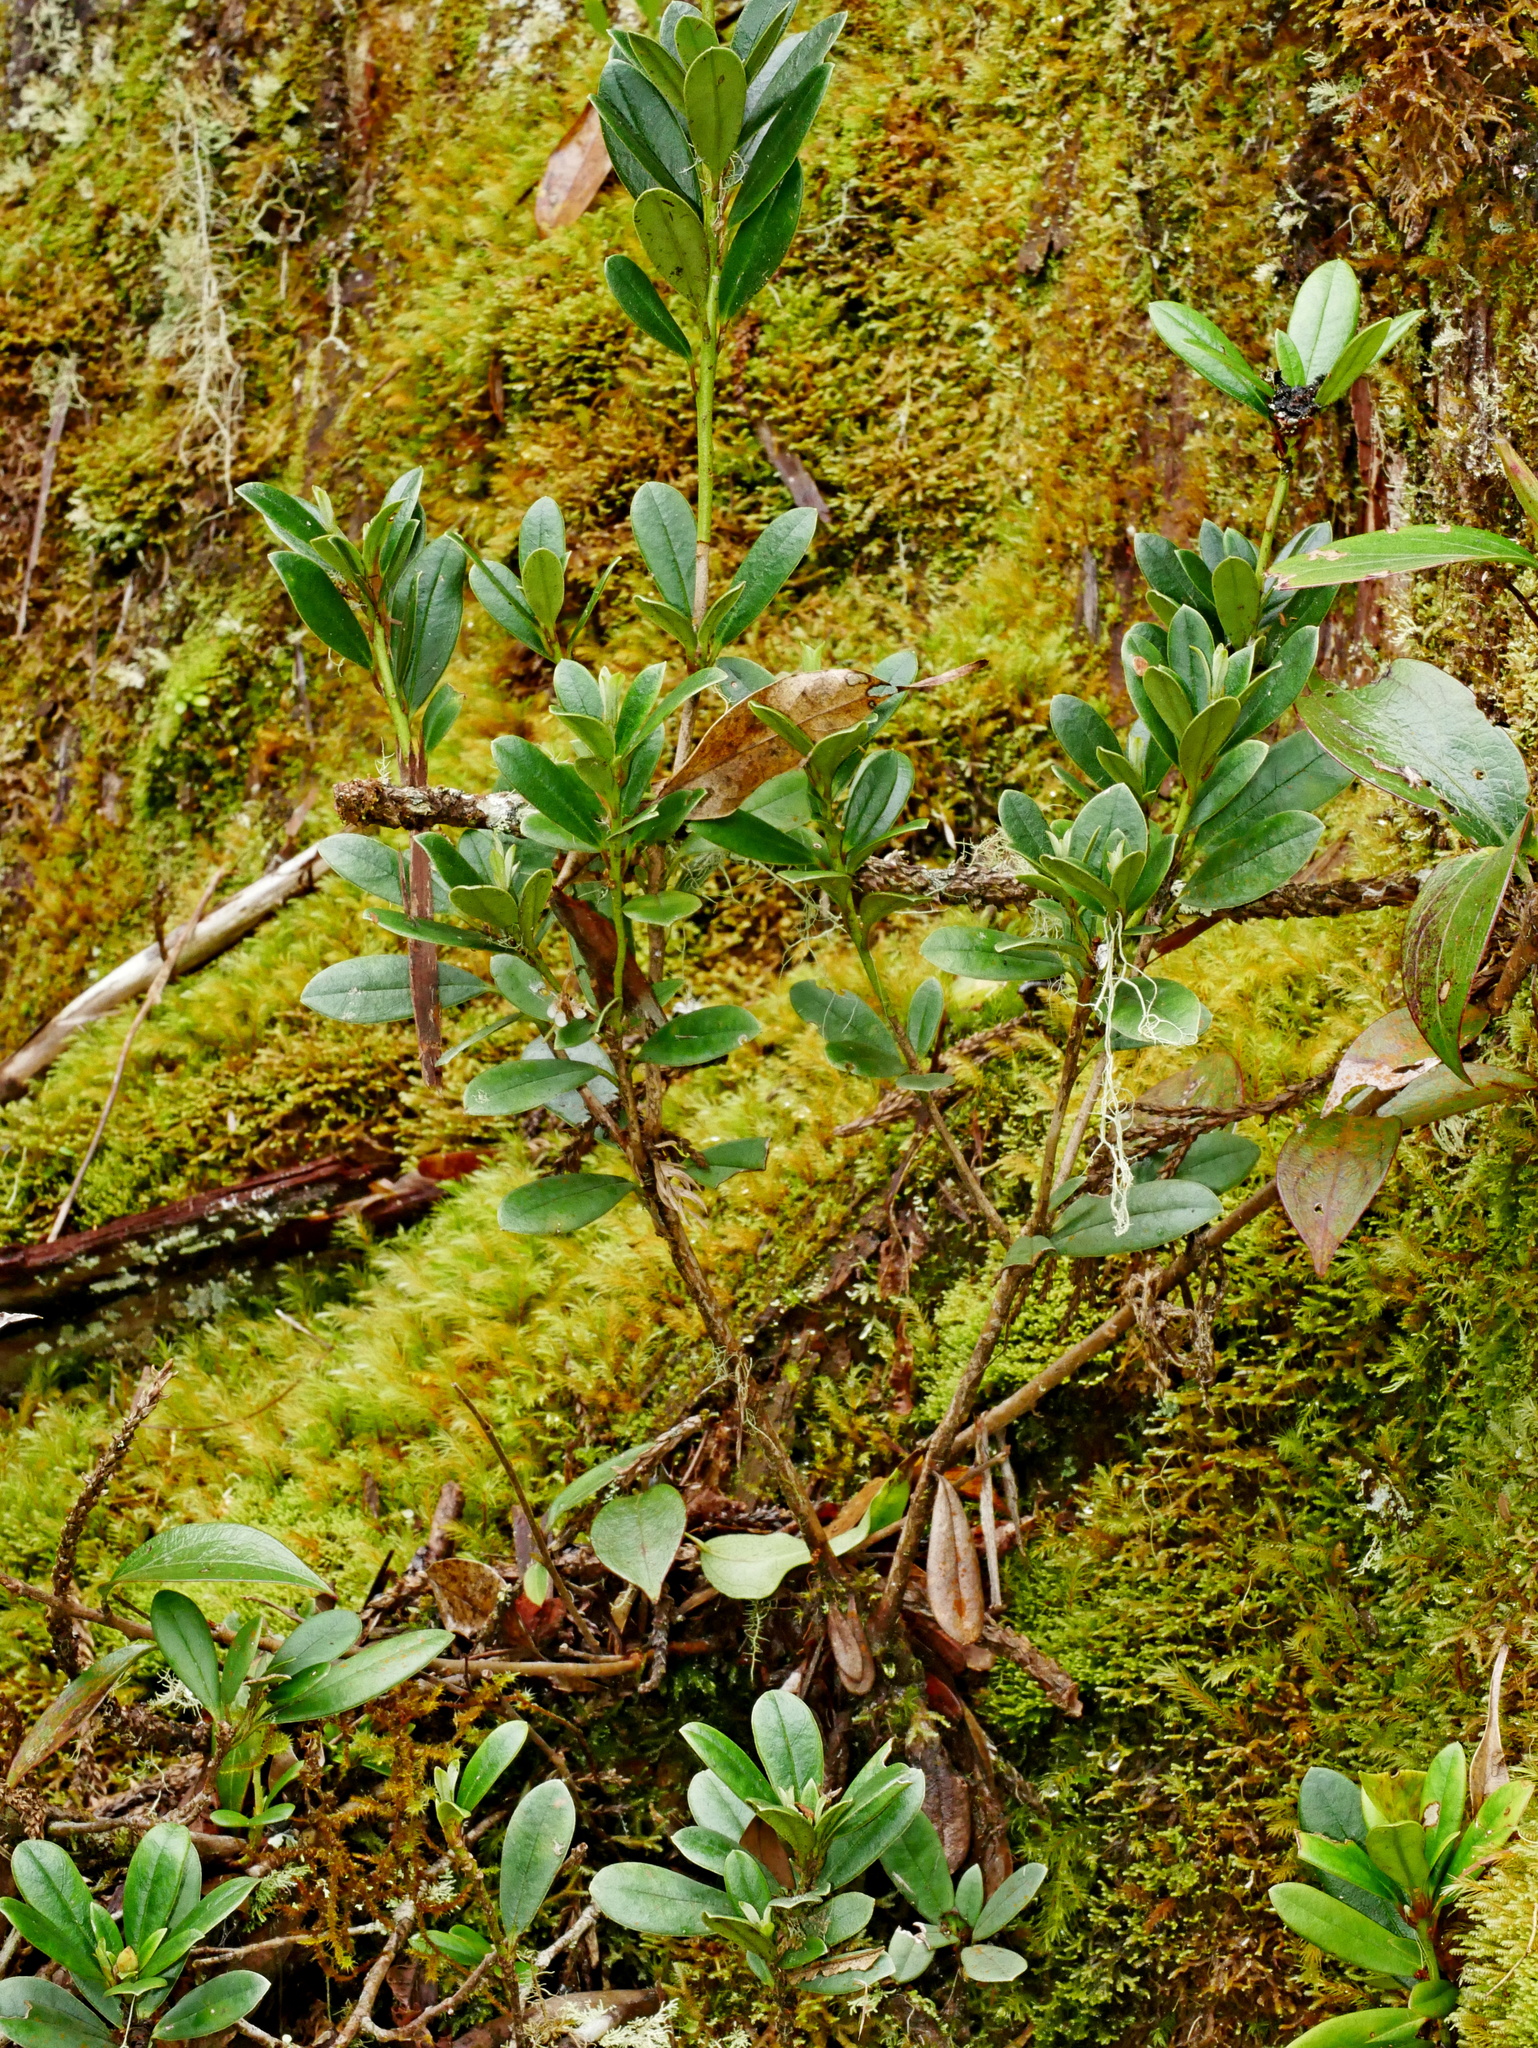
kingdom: Plantae
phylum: Tracheophyta
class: Magnoliopsida
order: Ericales
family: Ericaceae
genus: Rhododendron
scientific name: Rhododendron kawakamii
